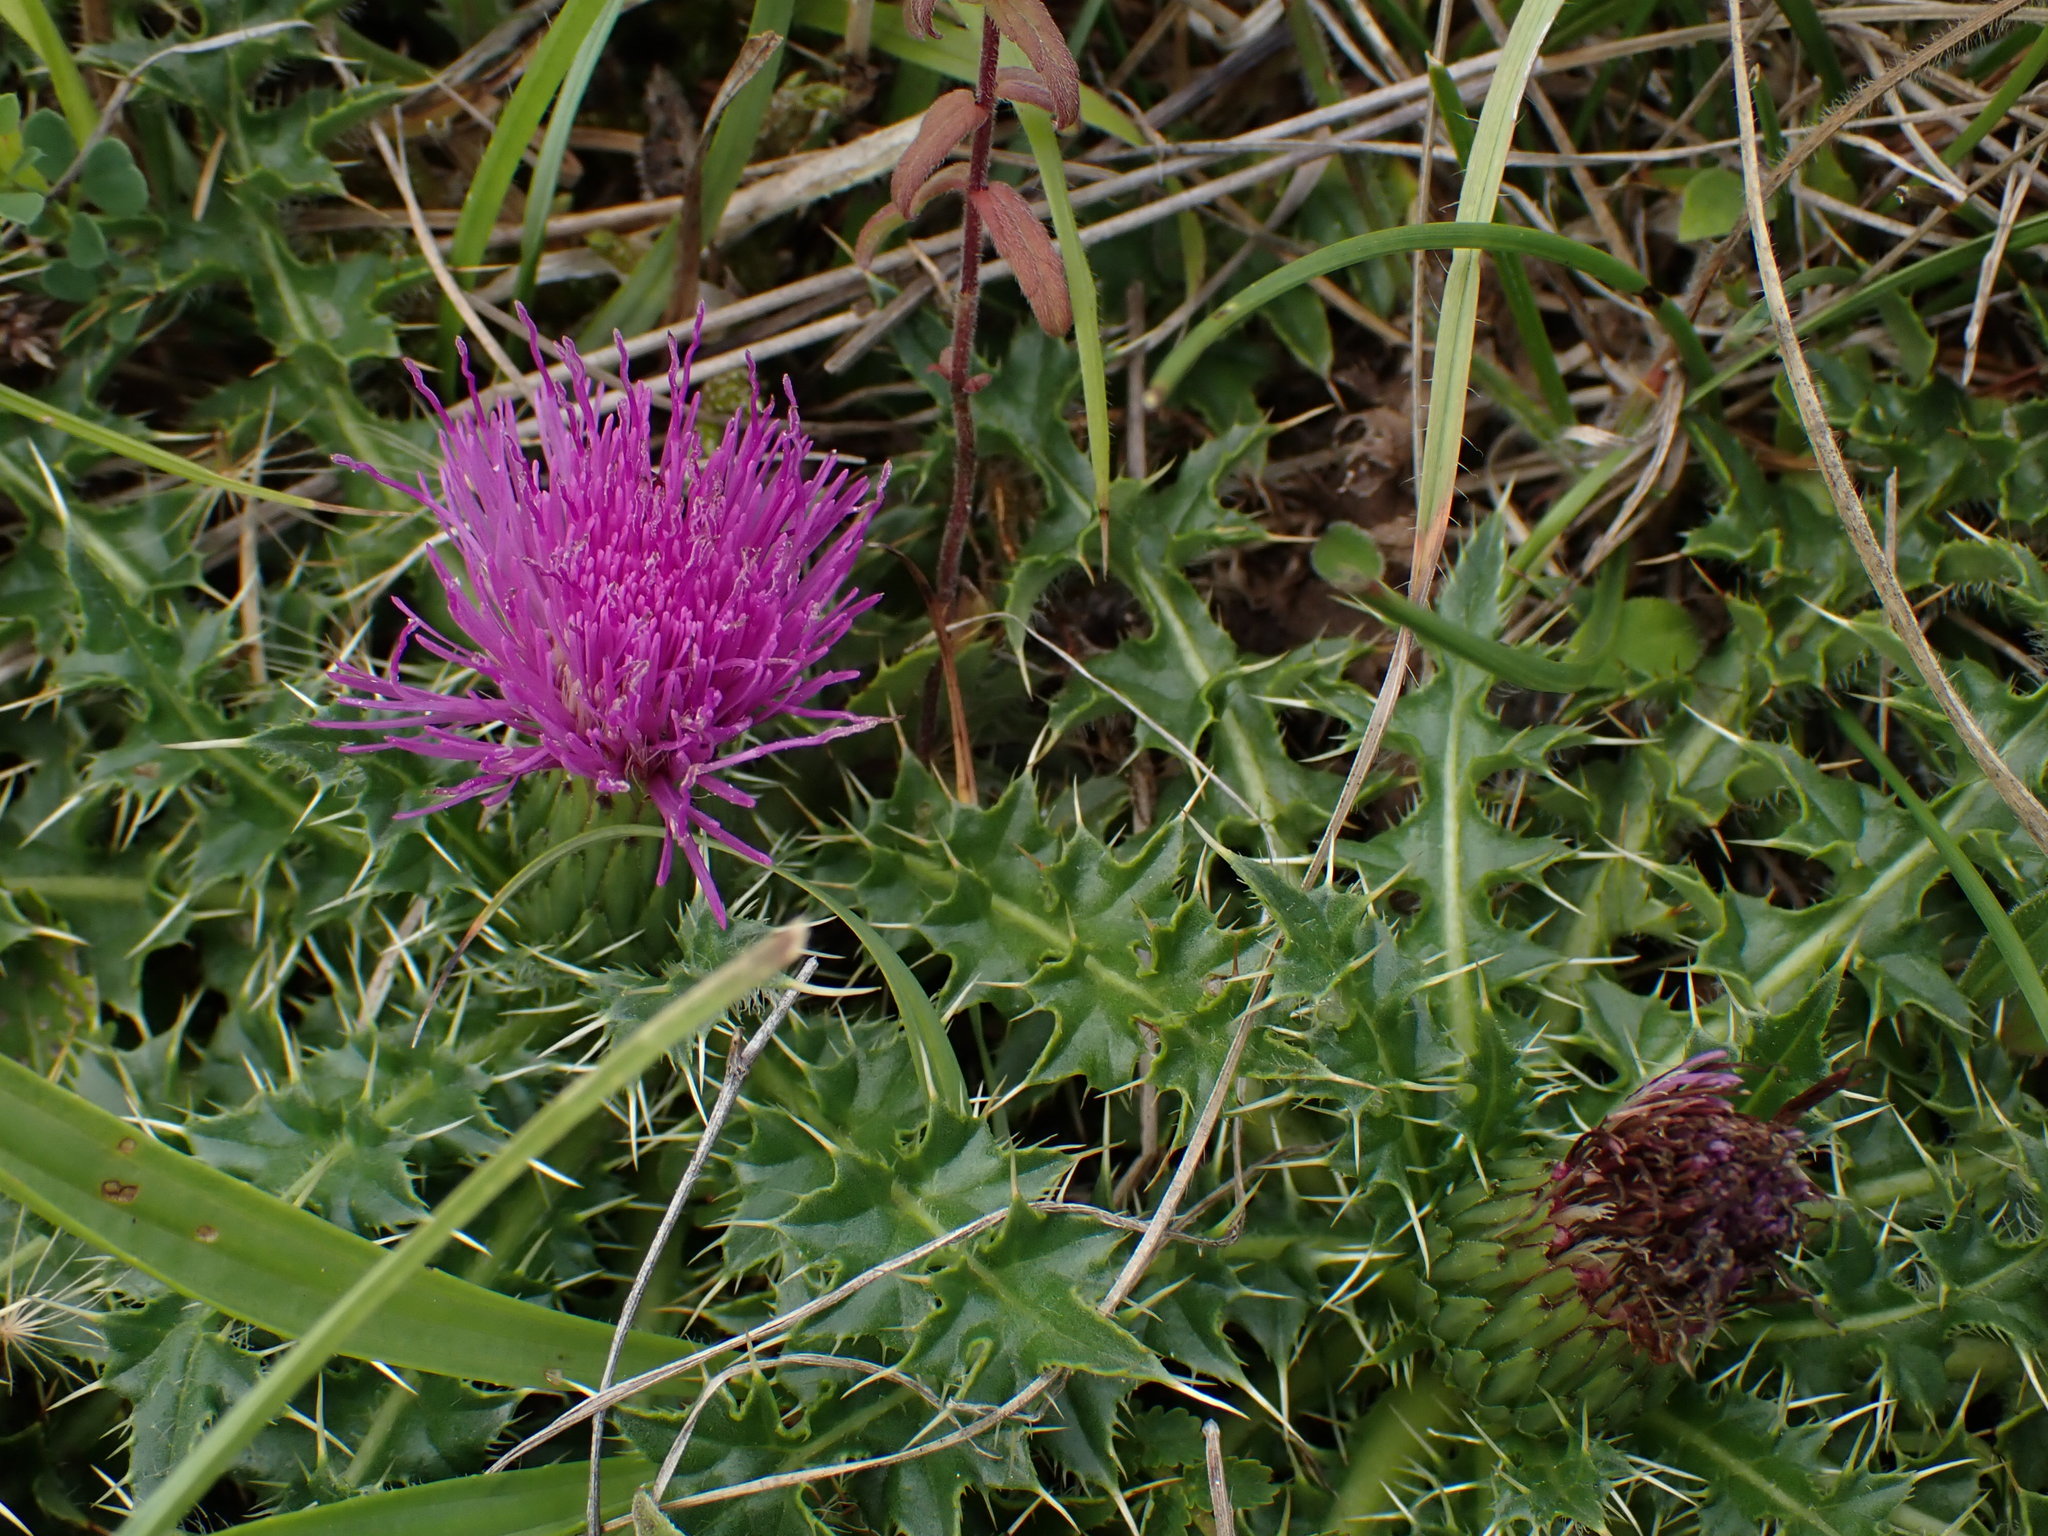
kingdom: Plantae
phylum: Tracheophyta
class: Magnoliopsida
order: Asterales
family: Asteraceae
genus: Cirsium
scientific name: Cirsium acaulon
